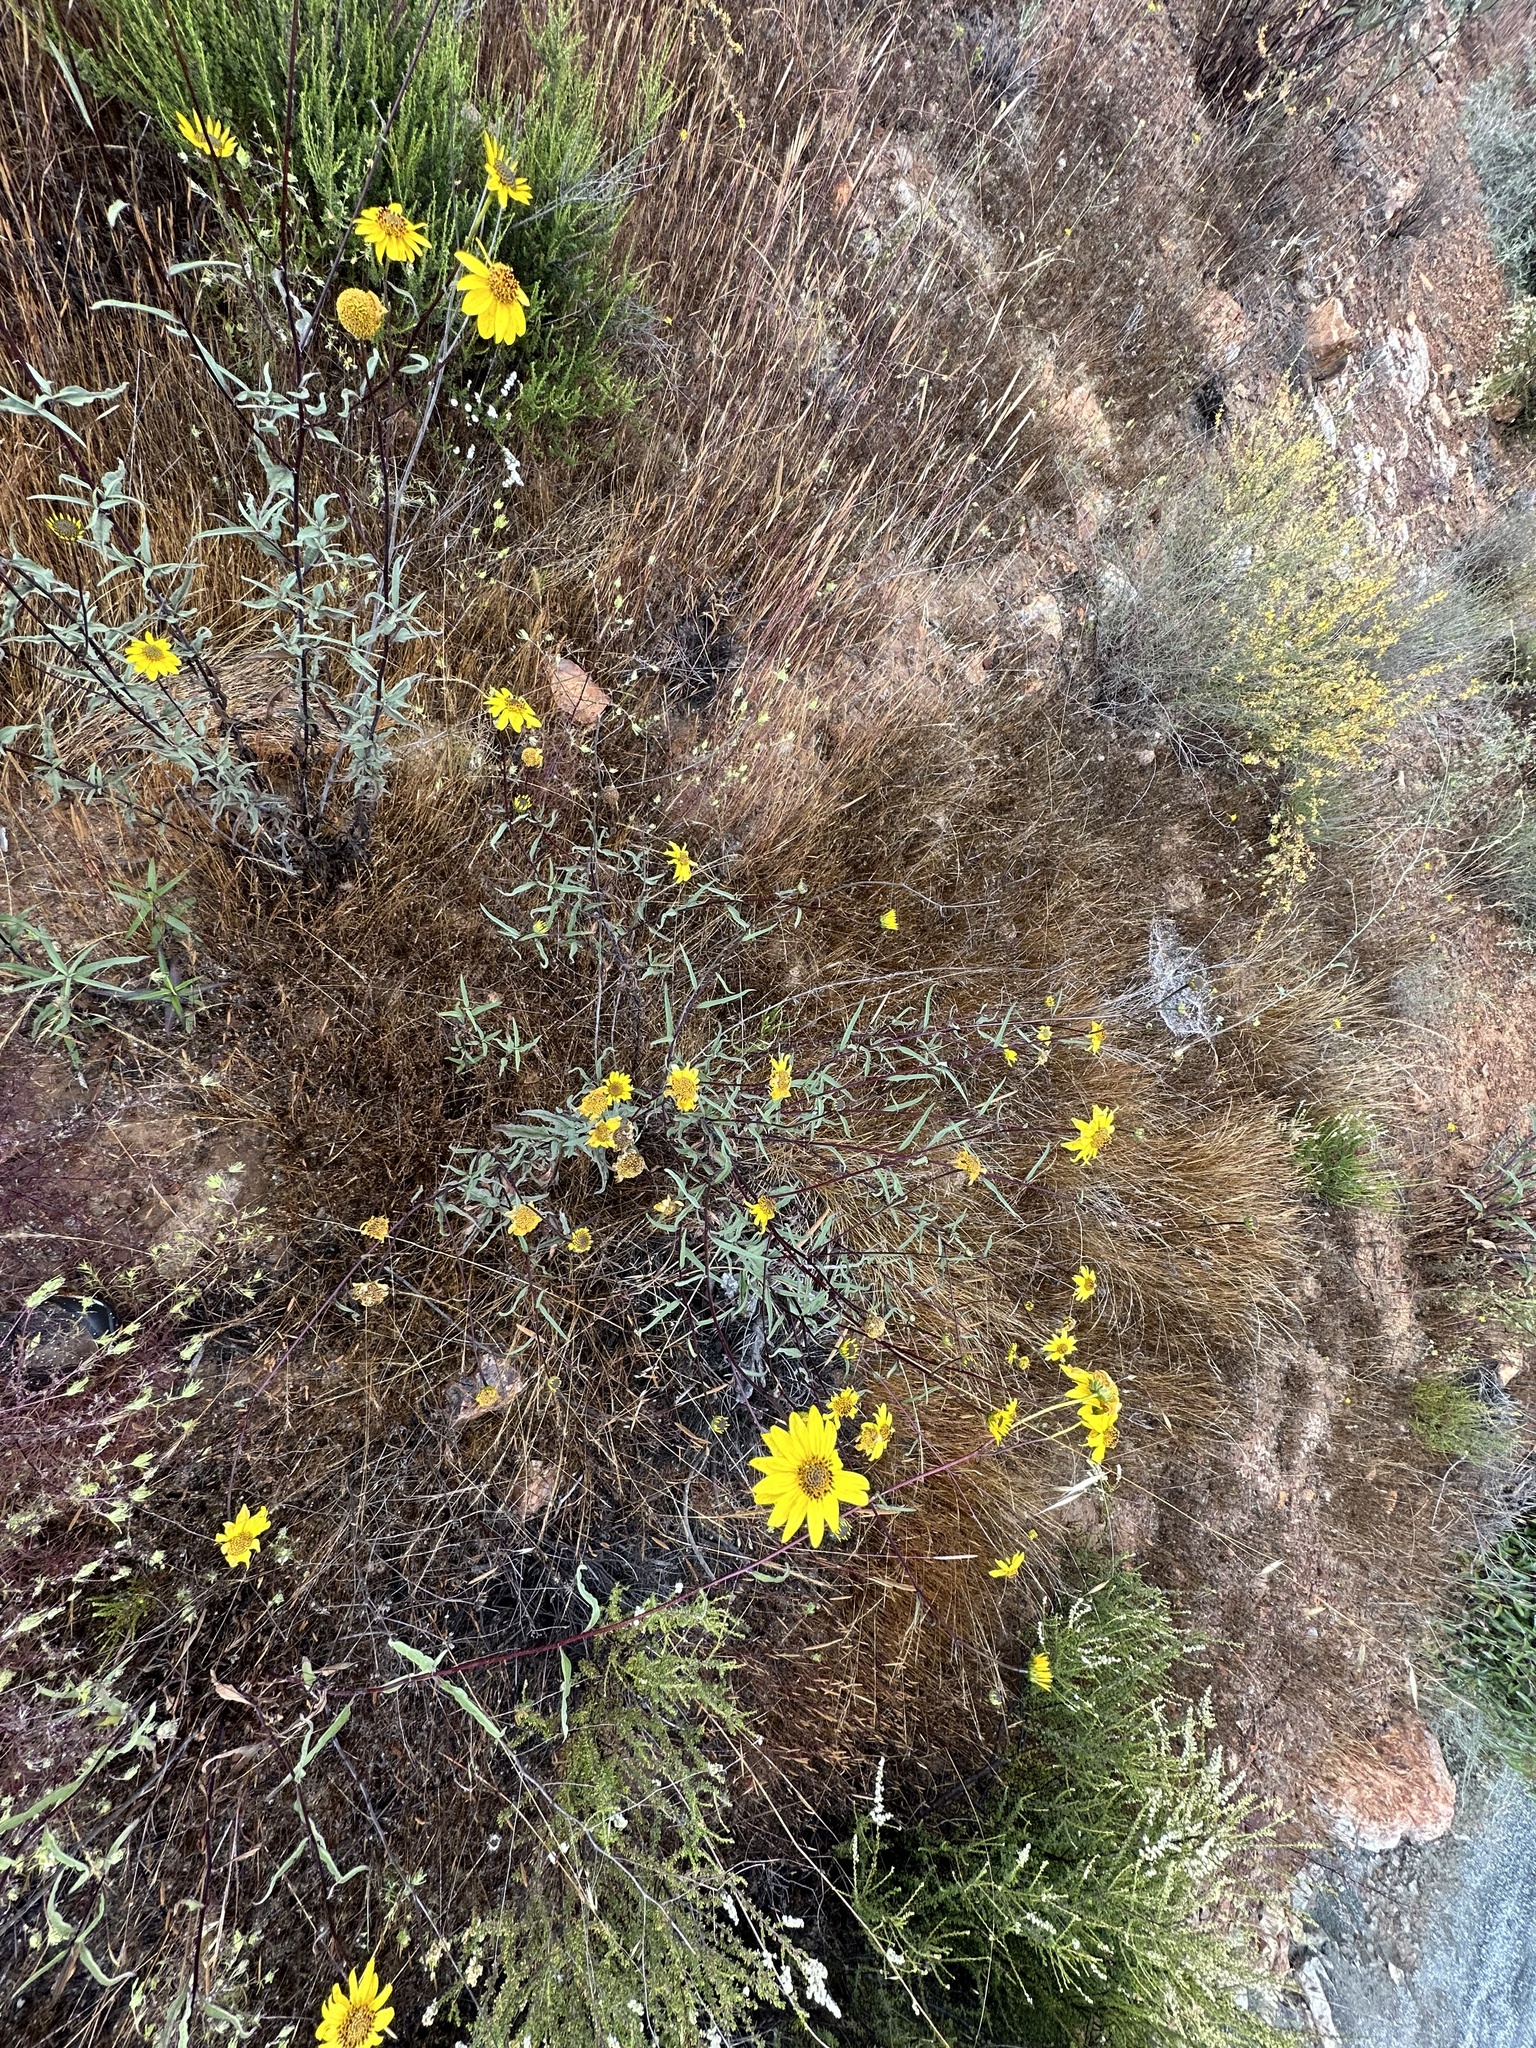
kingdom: Plantae
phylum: Tracheophyta
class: Magnoliopsida
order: Asterales
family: Asteraceae
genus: Helianthus
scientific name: Helianthus gracilentus
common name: Slender sunflower
